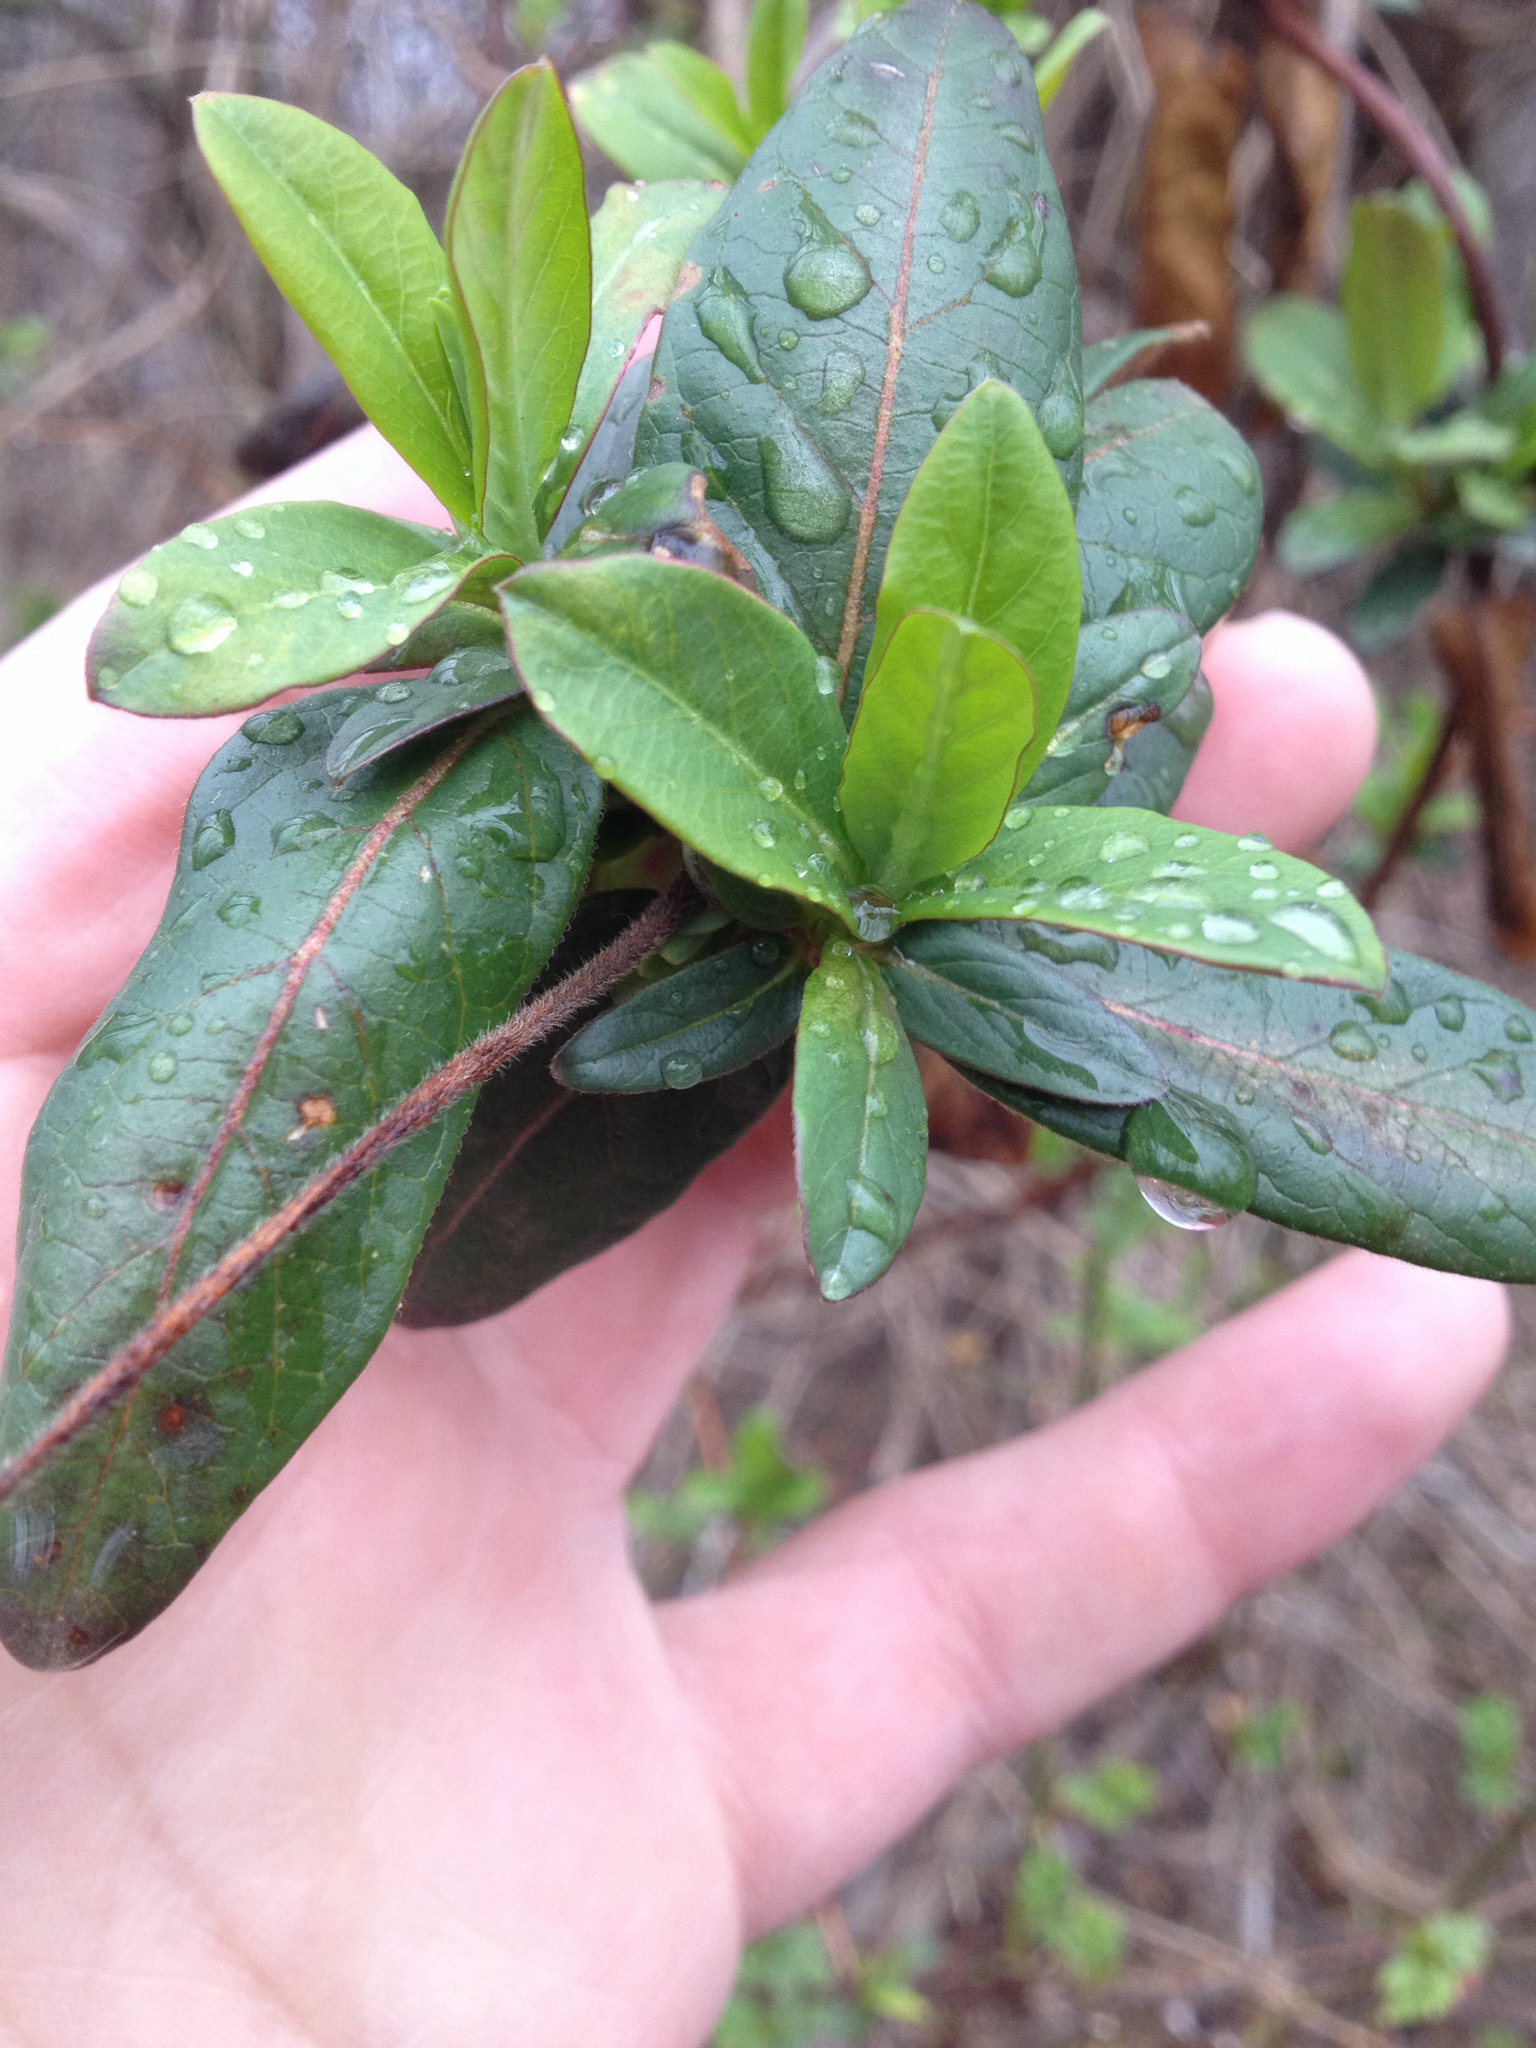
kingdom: Plantae
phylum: Tracheophyta
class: Magnoliopsida
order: Dipsacales
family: Caprifoliaceae
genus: Lonicera
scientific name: Lonicera japonica
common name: Japanese honeysuckle
